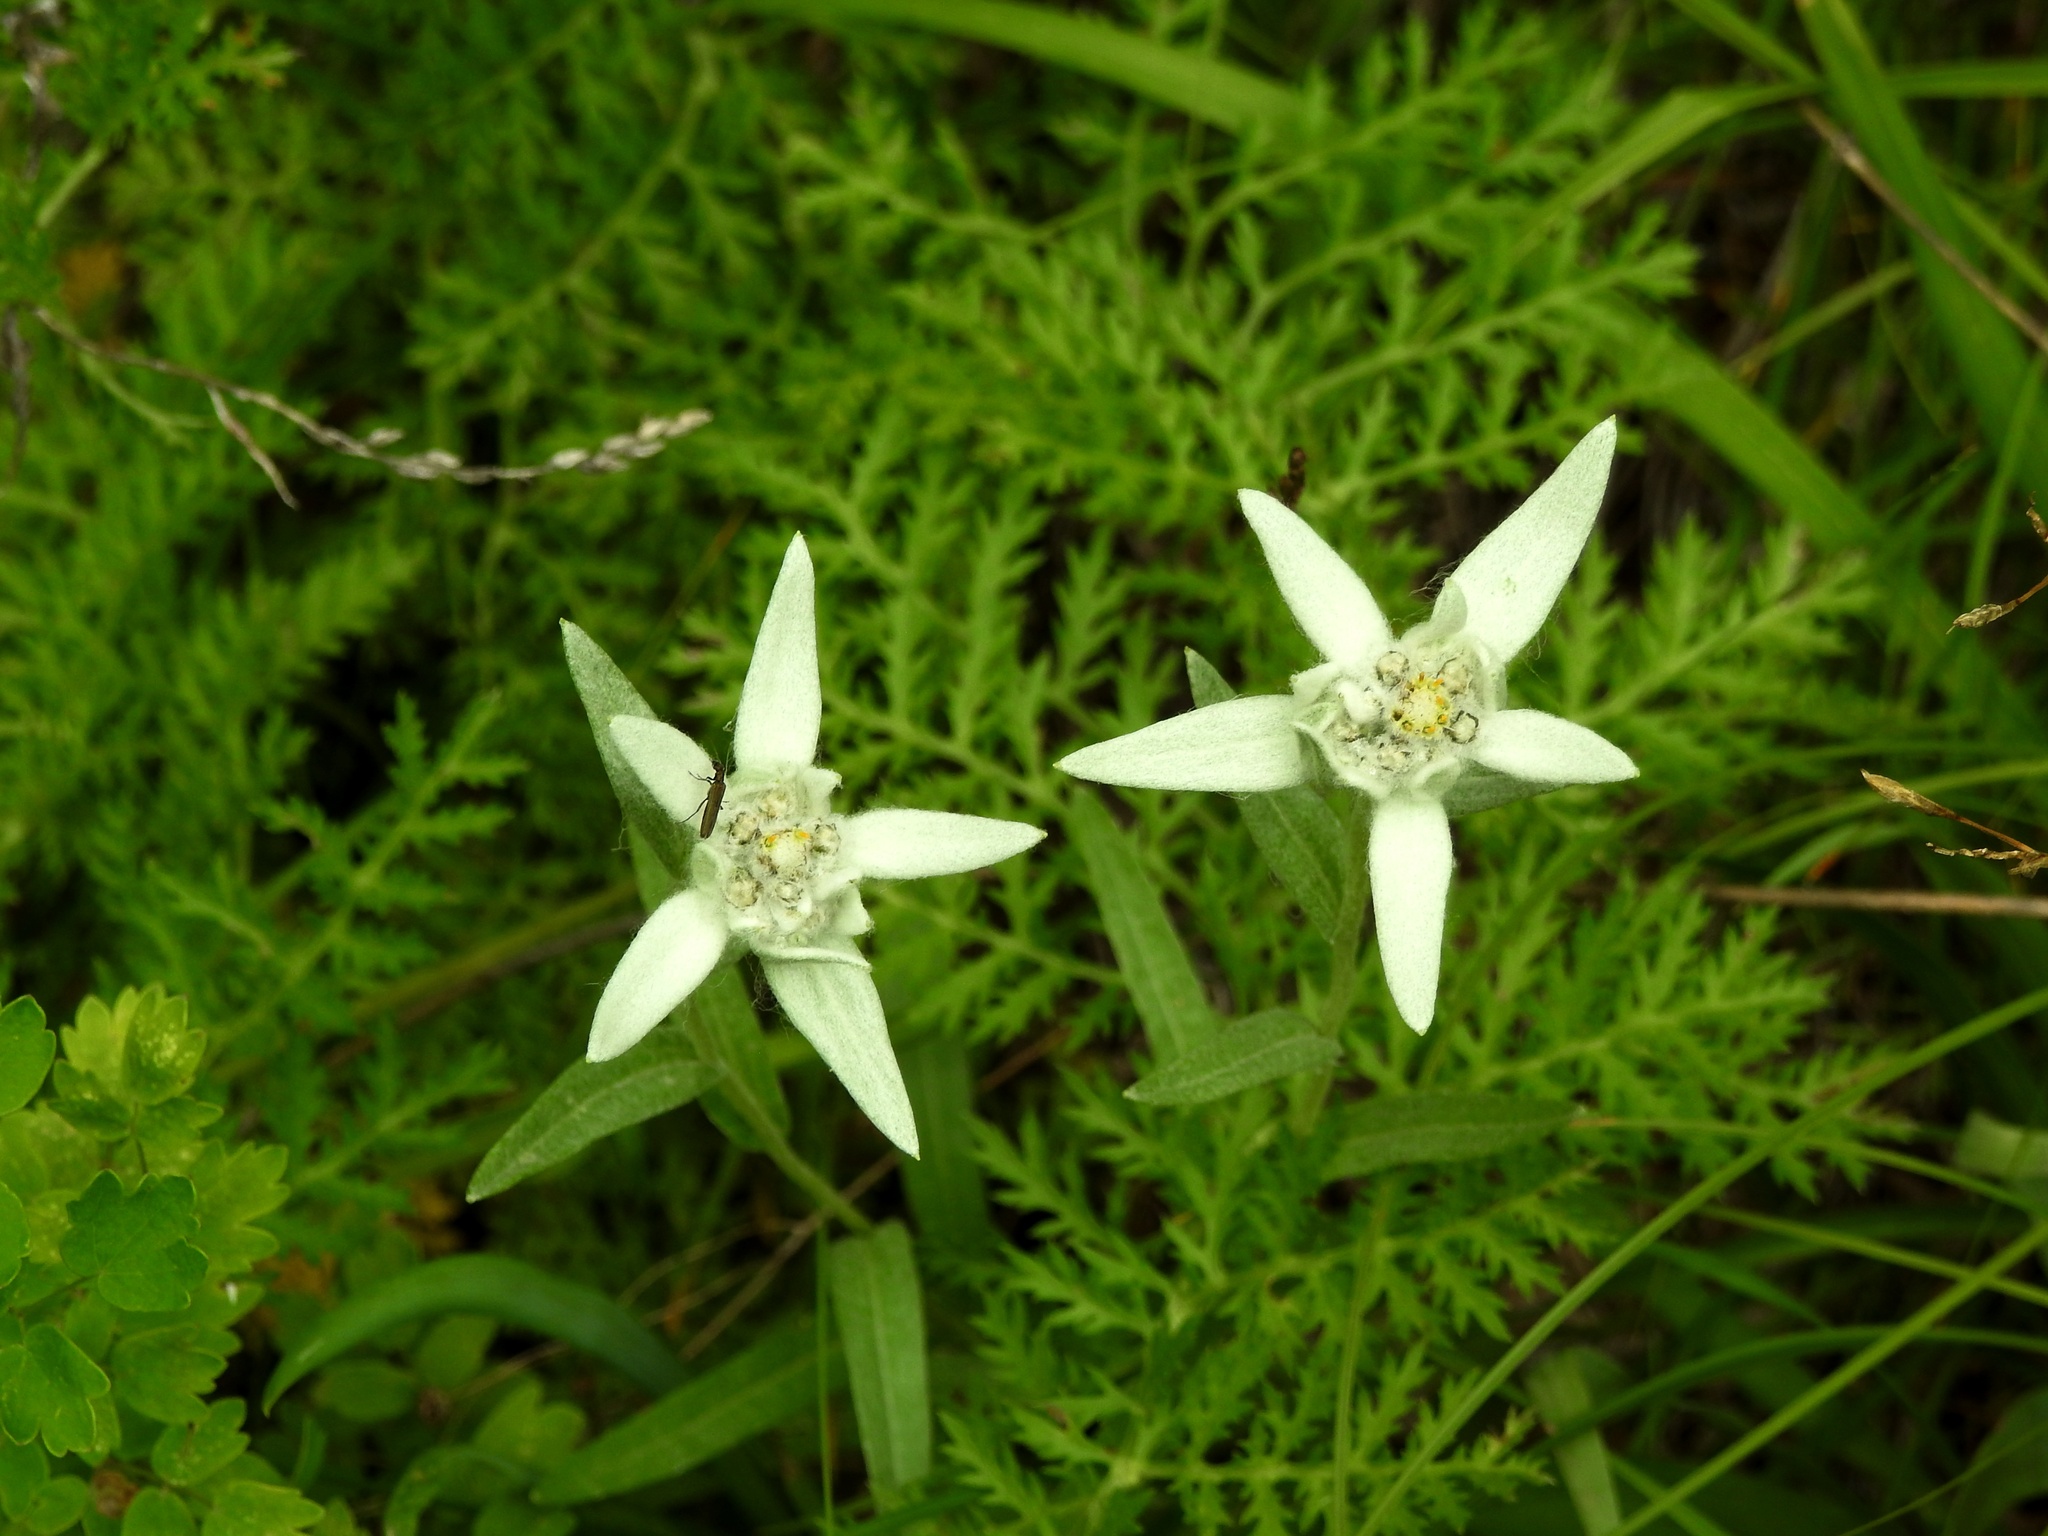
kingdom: Plantae
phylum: Tracheophyta
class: Magnoliopsida
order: Asterales
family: Asteraceae
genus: Leontopodium
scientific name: Leontopodium leontopodioides
